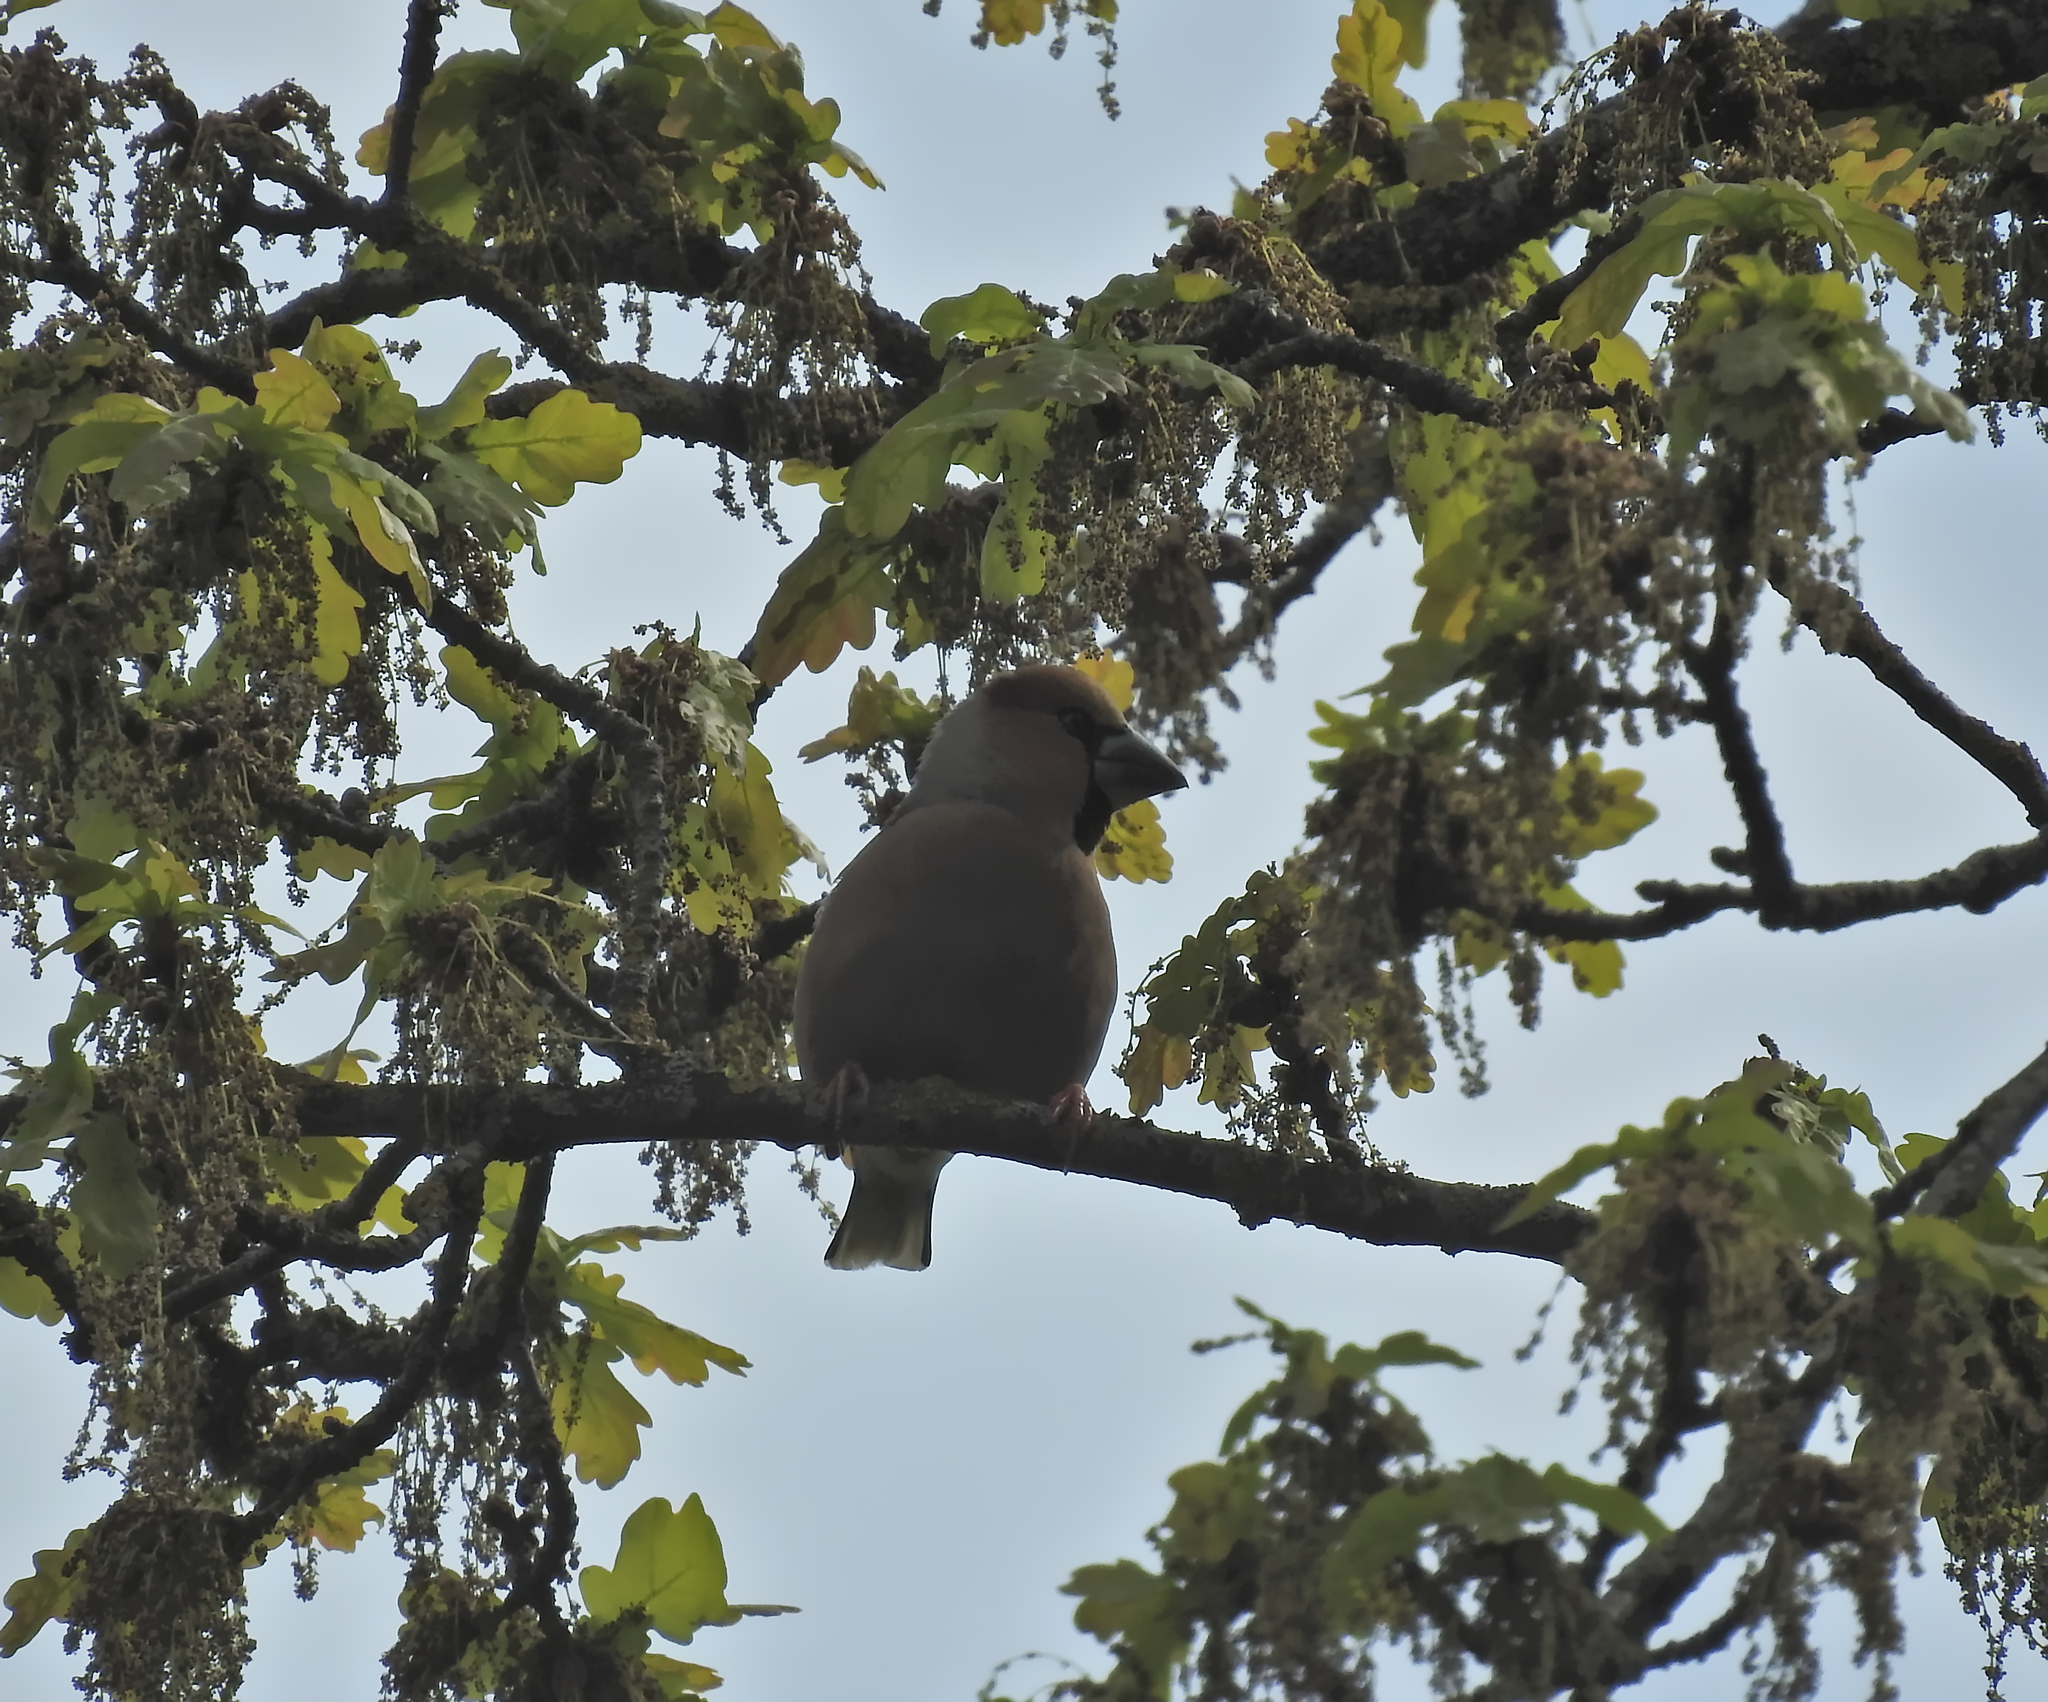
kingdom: Animalia
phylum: Chordata
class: Aves
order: Passeriformes
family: Fringillidae
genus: Coccothraustes
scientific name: Coccothraustes coccothraustes
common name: Hawfinch
